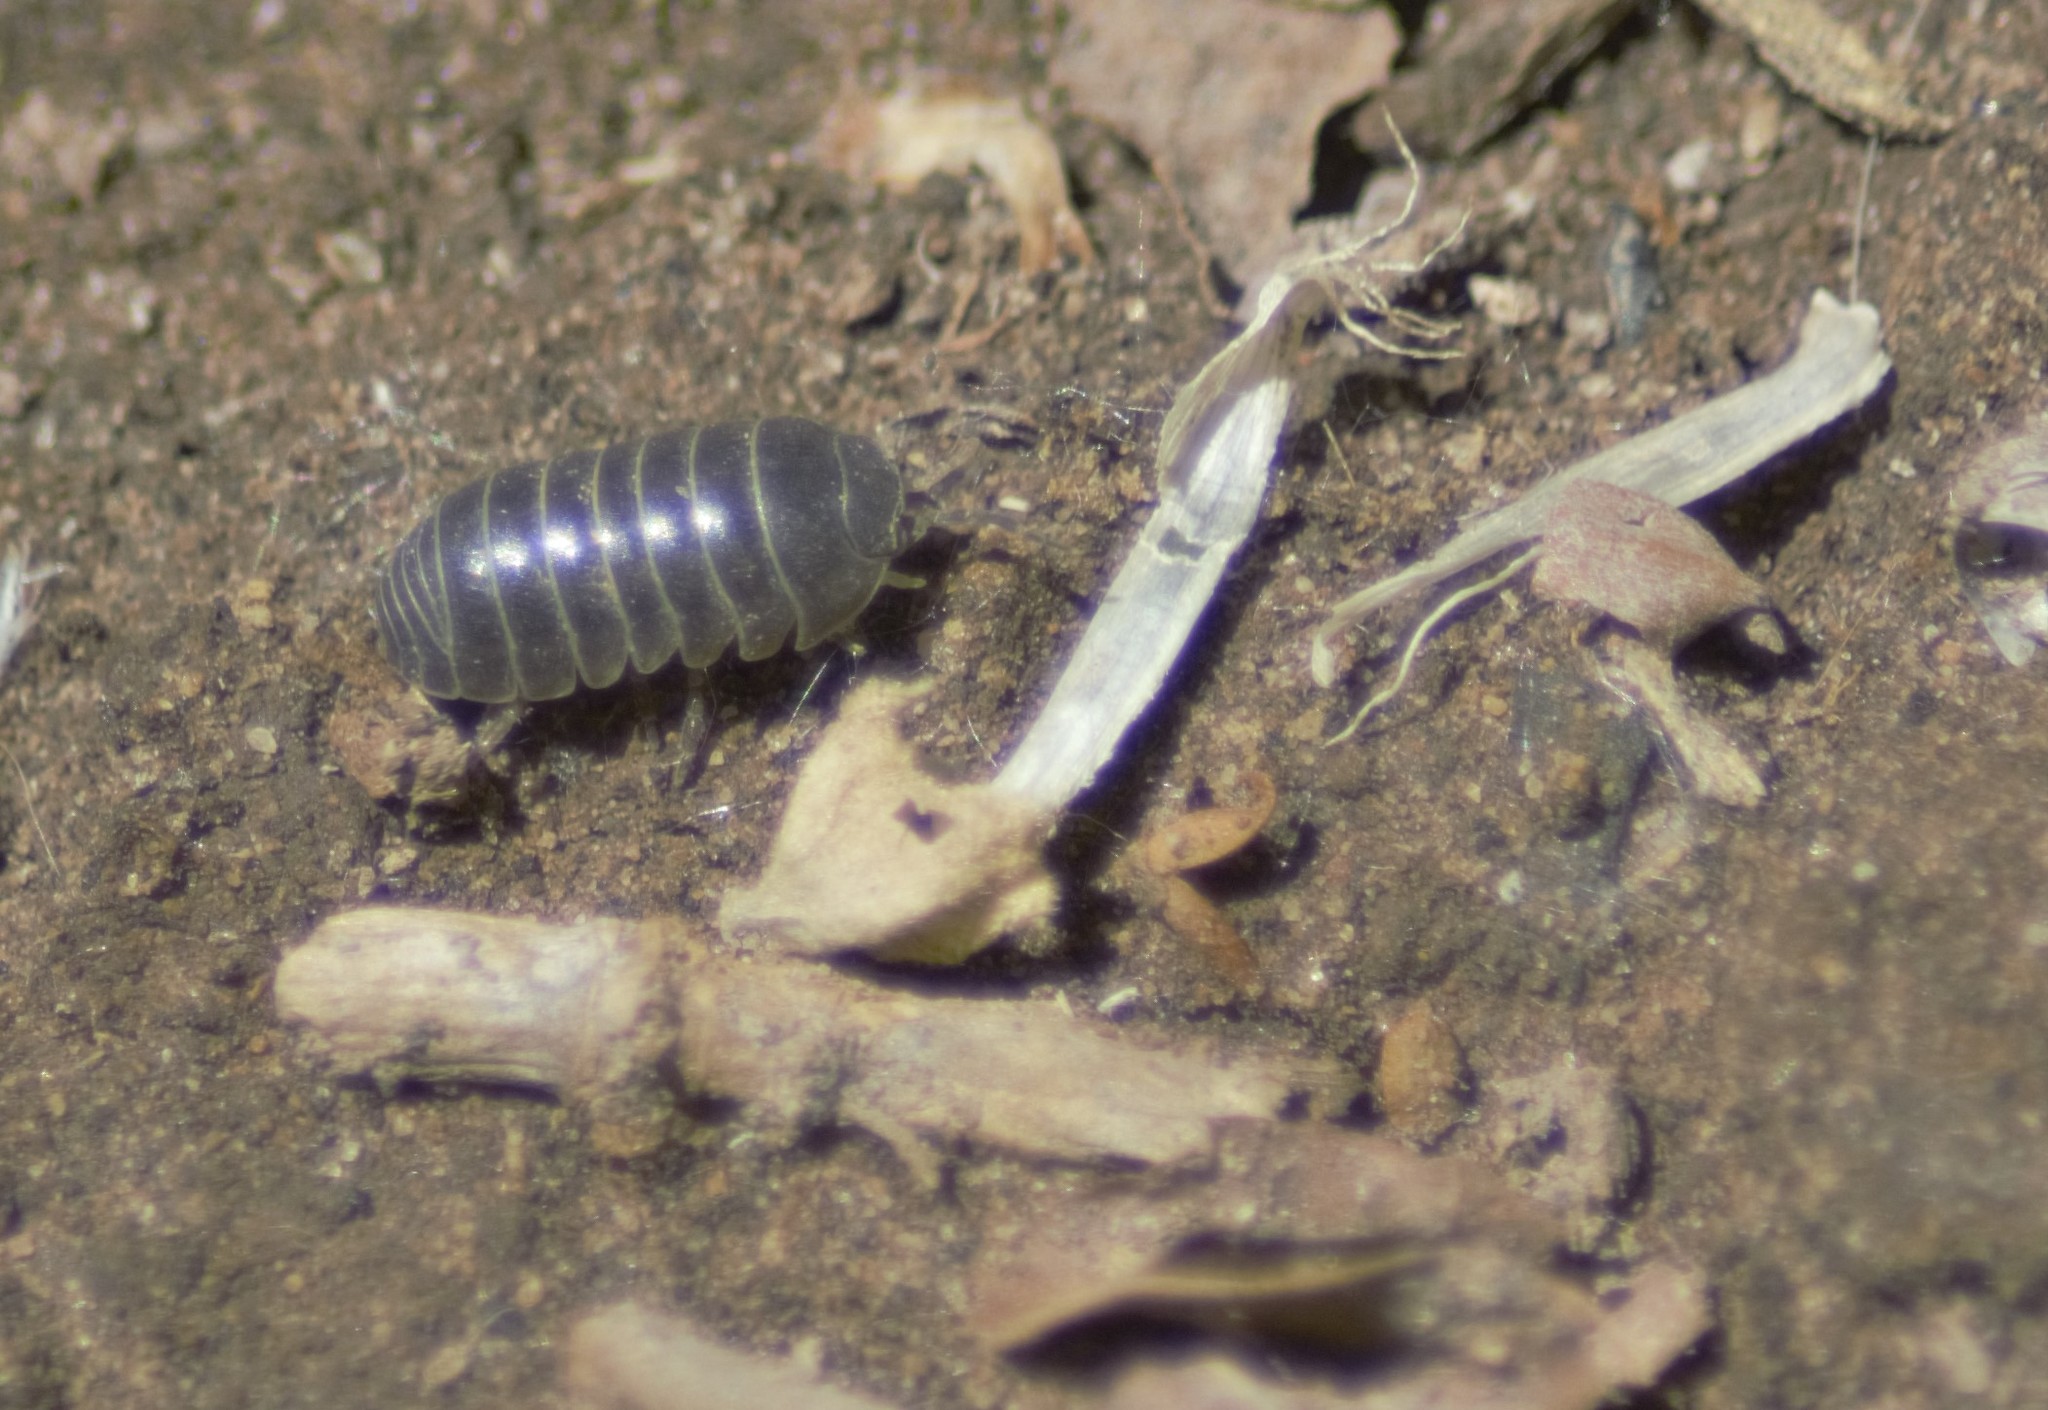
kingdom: Animalia
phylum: Arthropoda
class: Malacostraca
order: Isopoda
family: Armadillidiidae
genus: Armadillidium
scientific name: Armadillidium vulgare
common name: Common pill woodlouse
